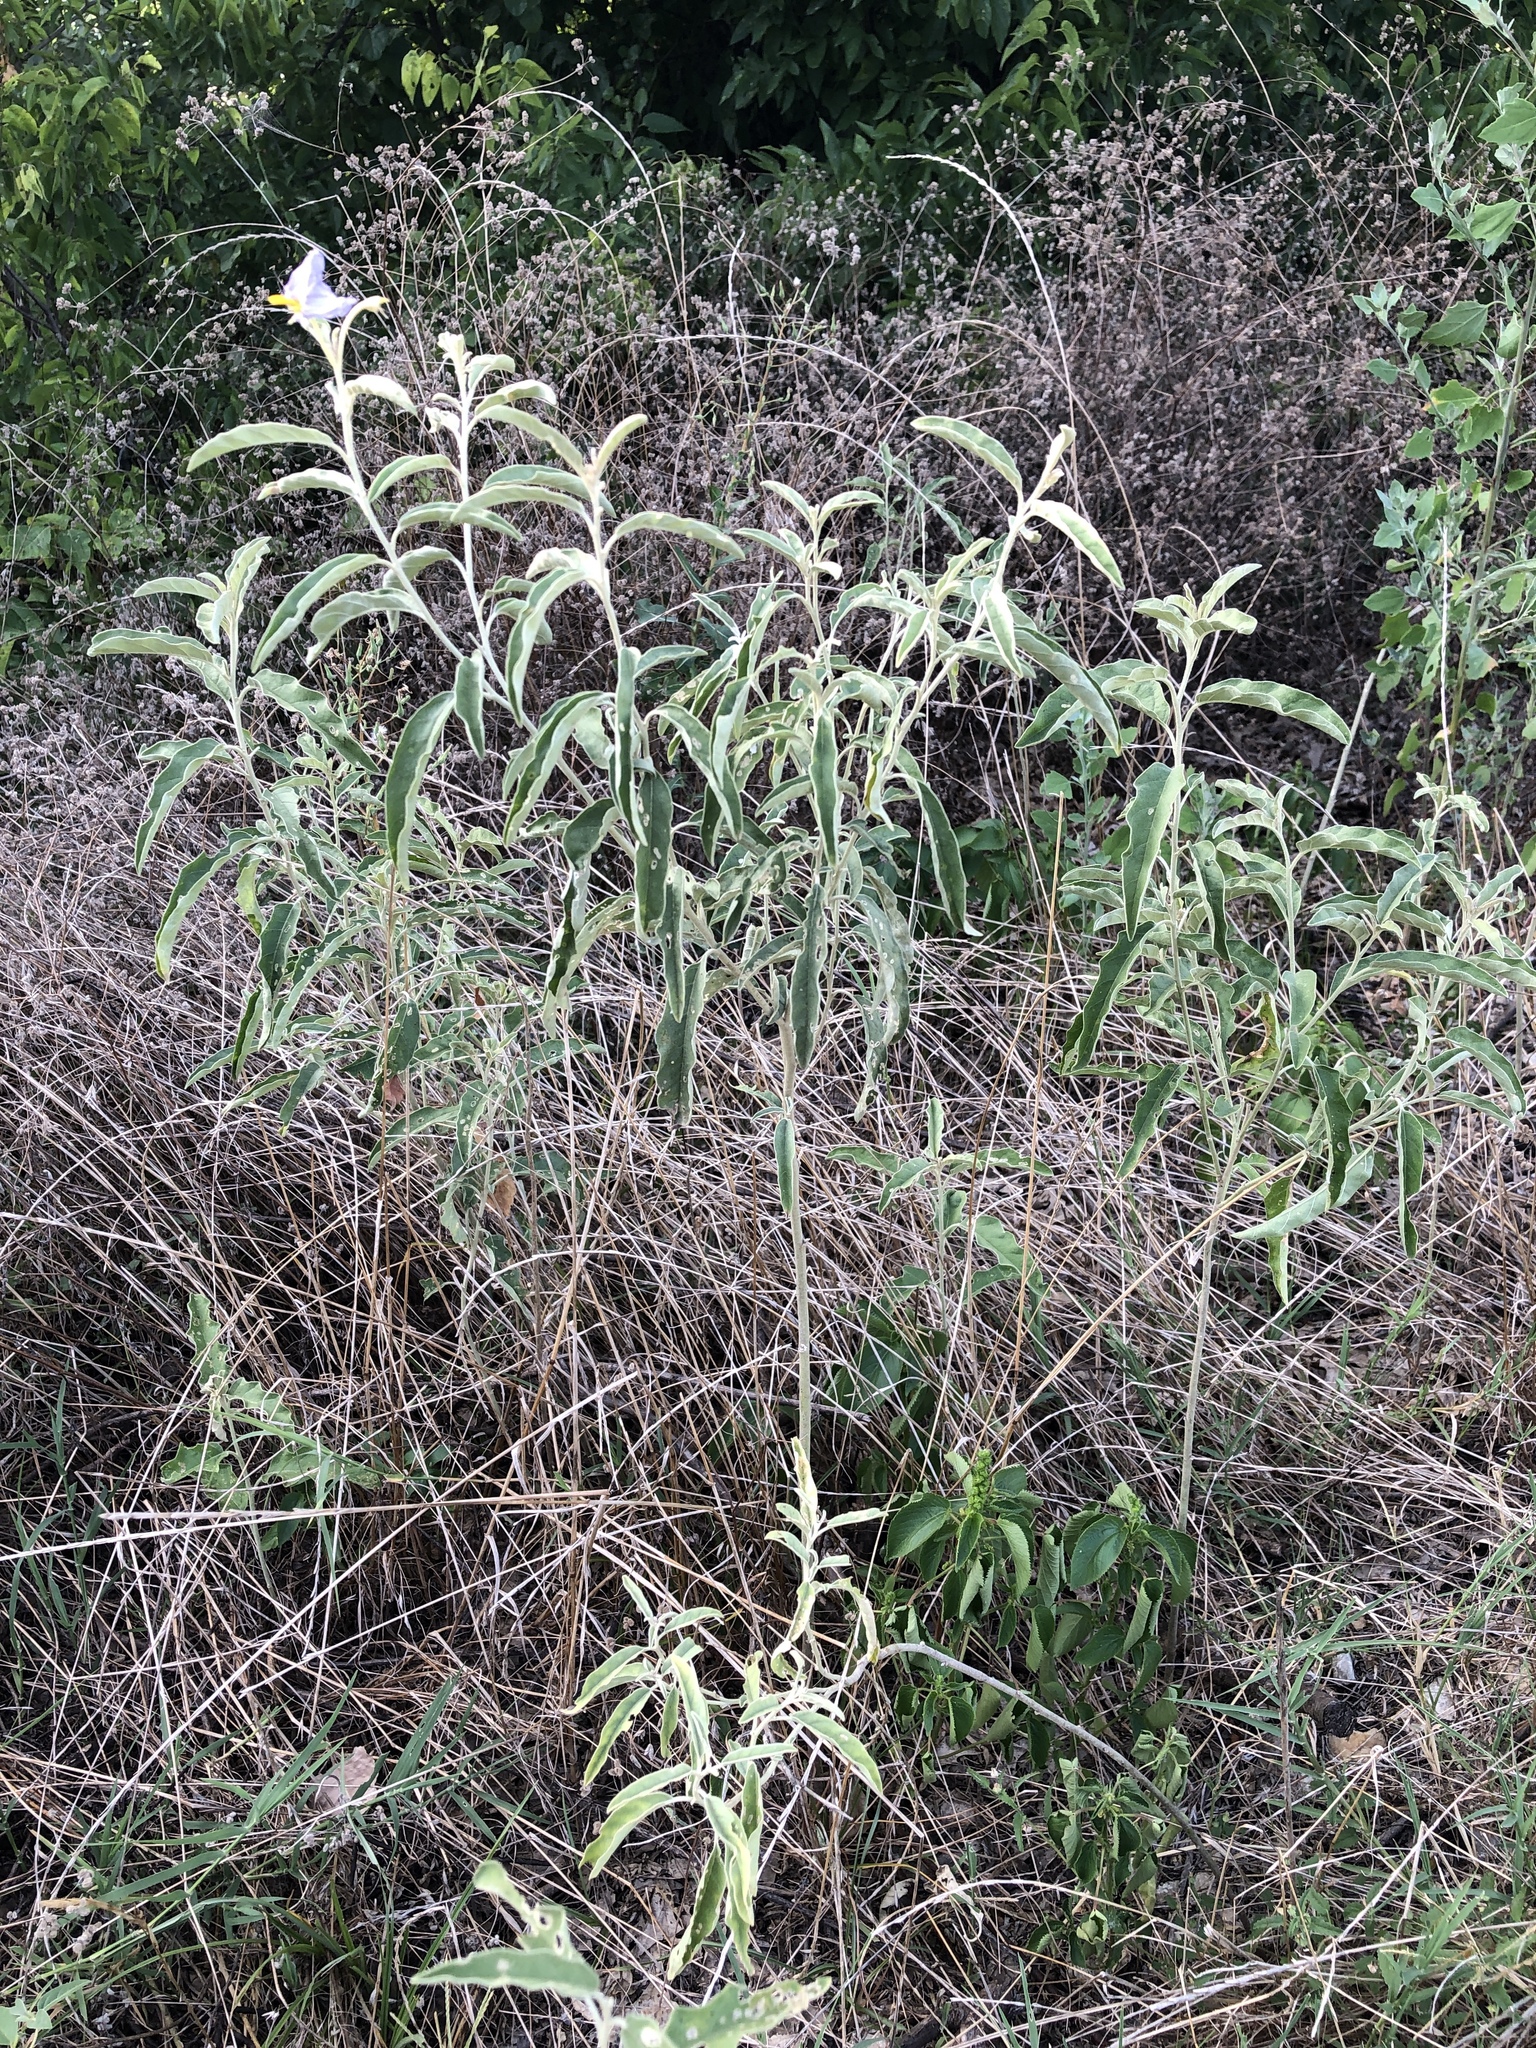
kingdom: Plantae
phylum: Tracheophyta
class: Magnoliopsida
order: Solanales
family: Solanaceae
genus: Solanum
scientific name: Solanum elaeagnifolium
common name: Silverleaf nightshade
